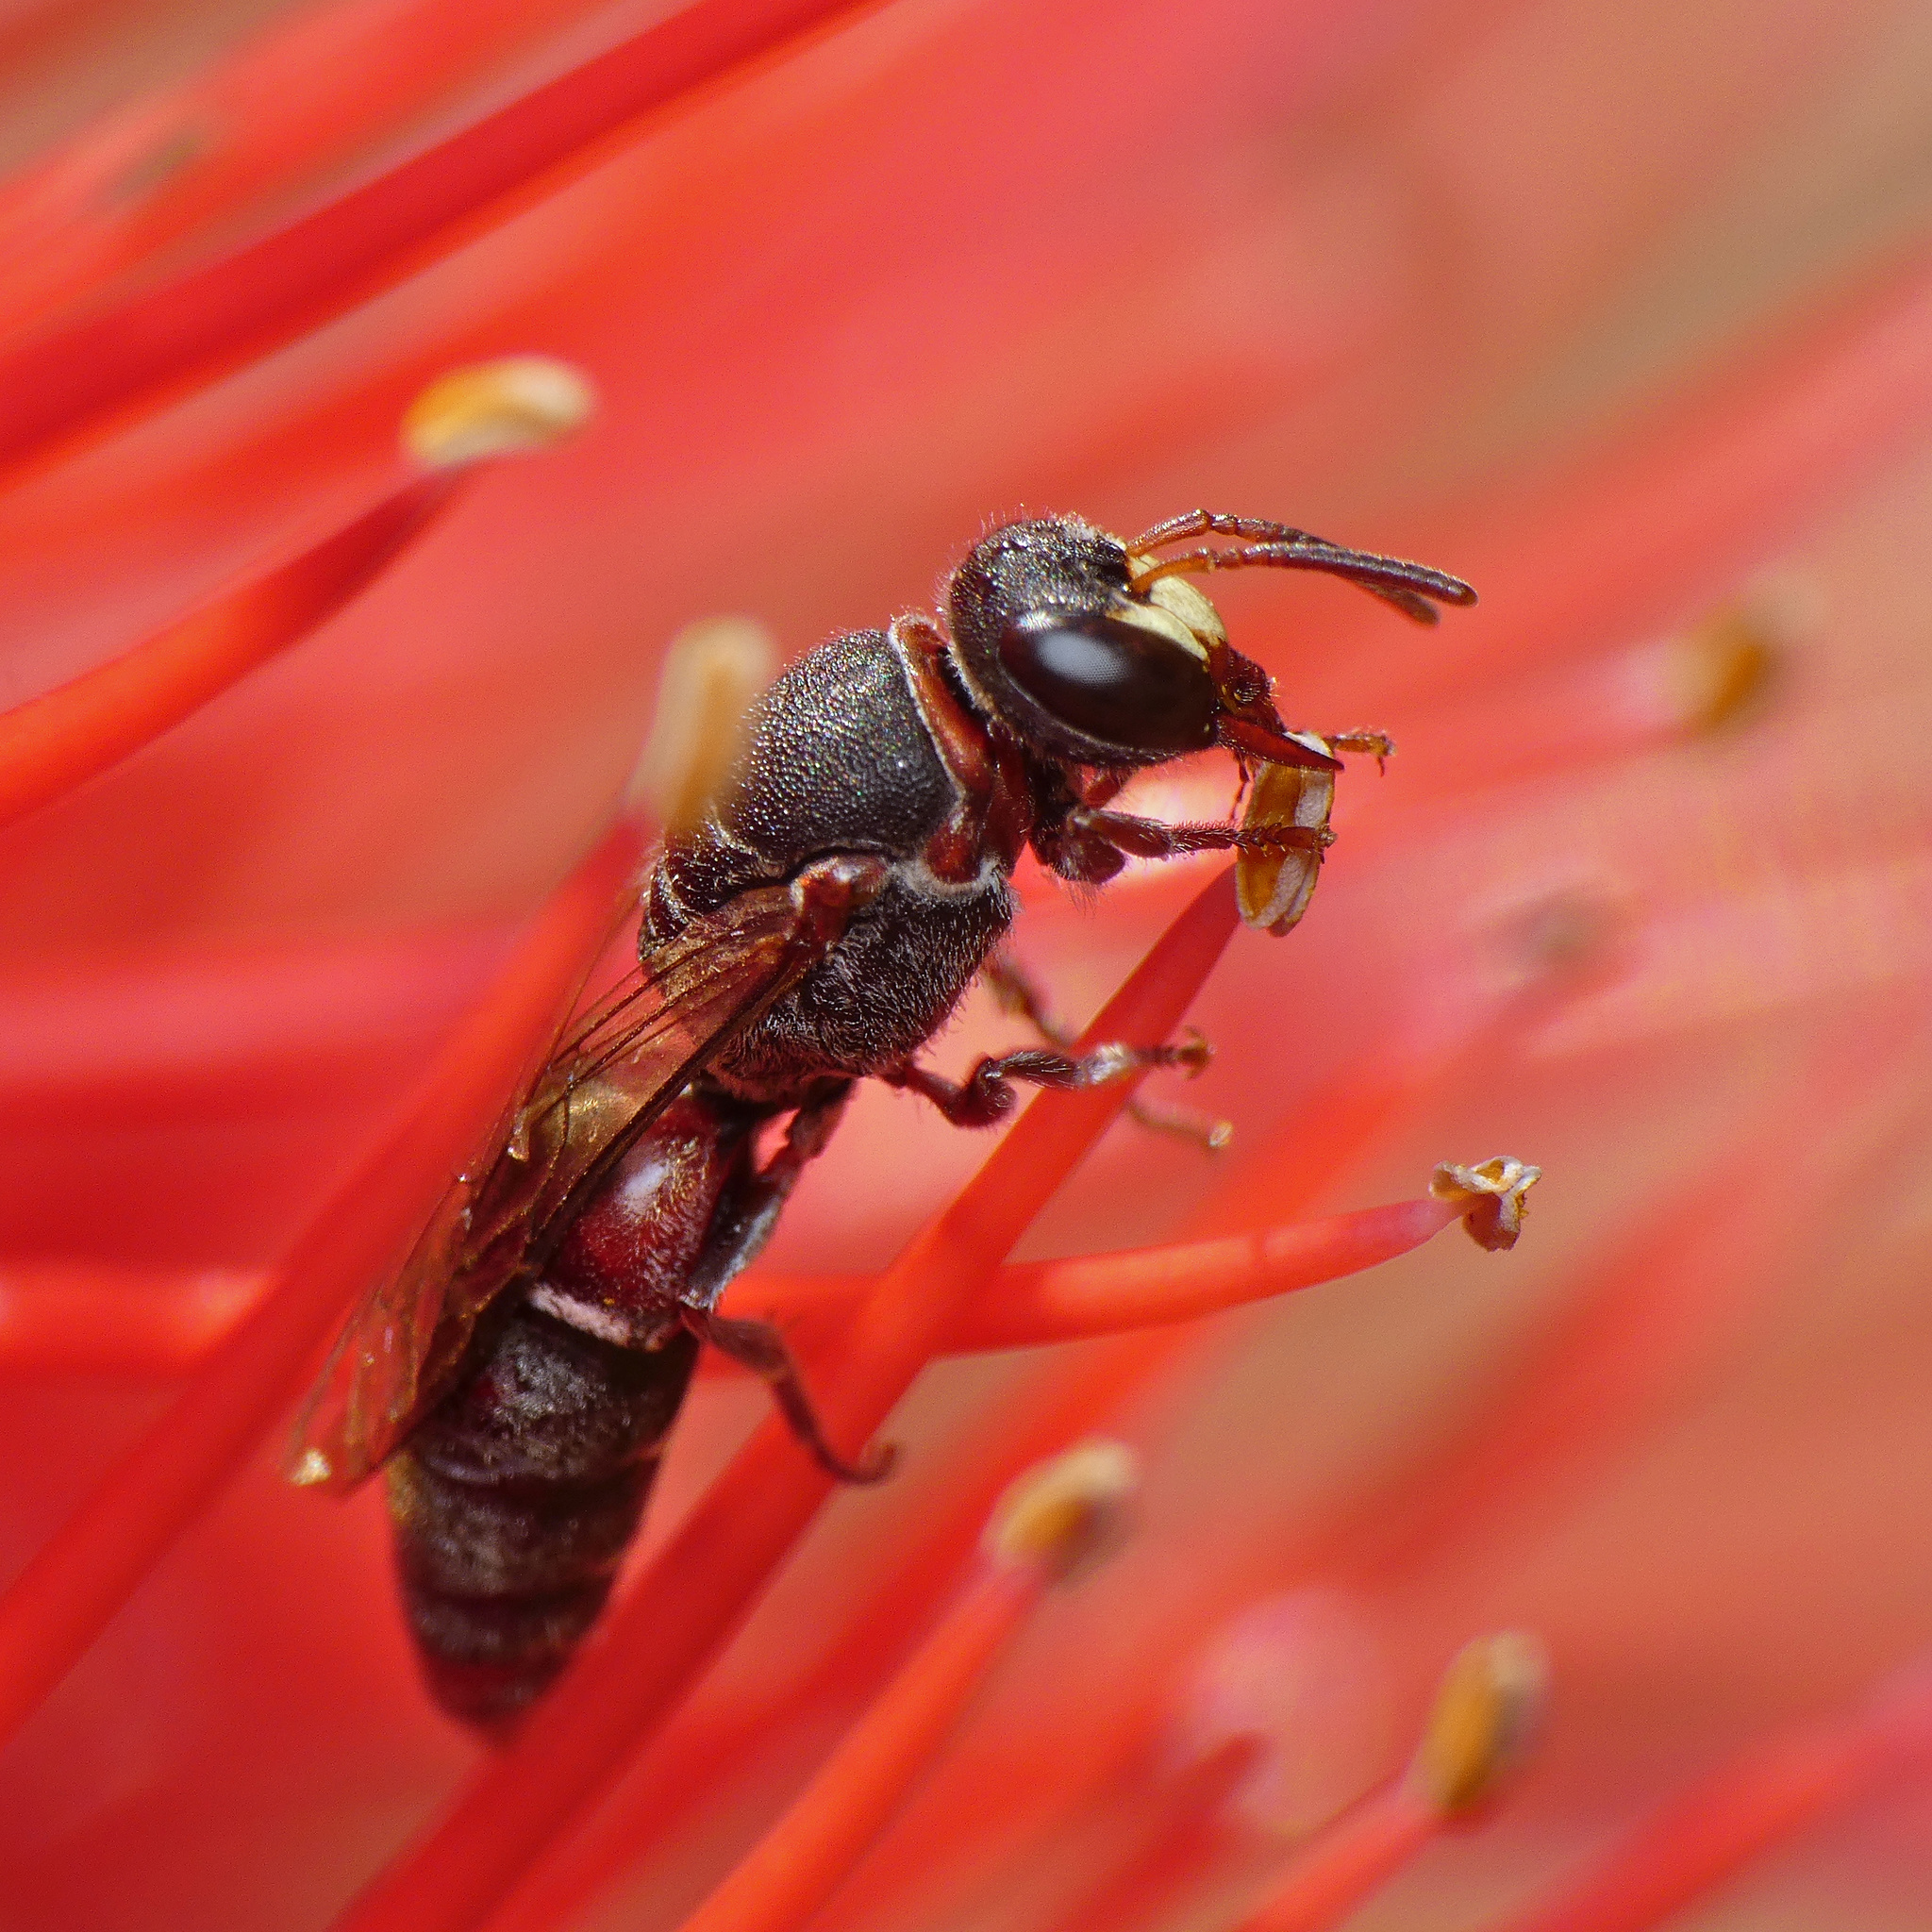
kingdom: Animalia
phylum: Arthropoda
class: Insecta
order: Hymenoptera
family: Colletidae
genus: Hylaeus
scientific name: Hylaeus heraldicus
